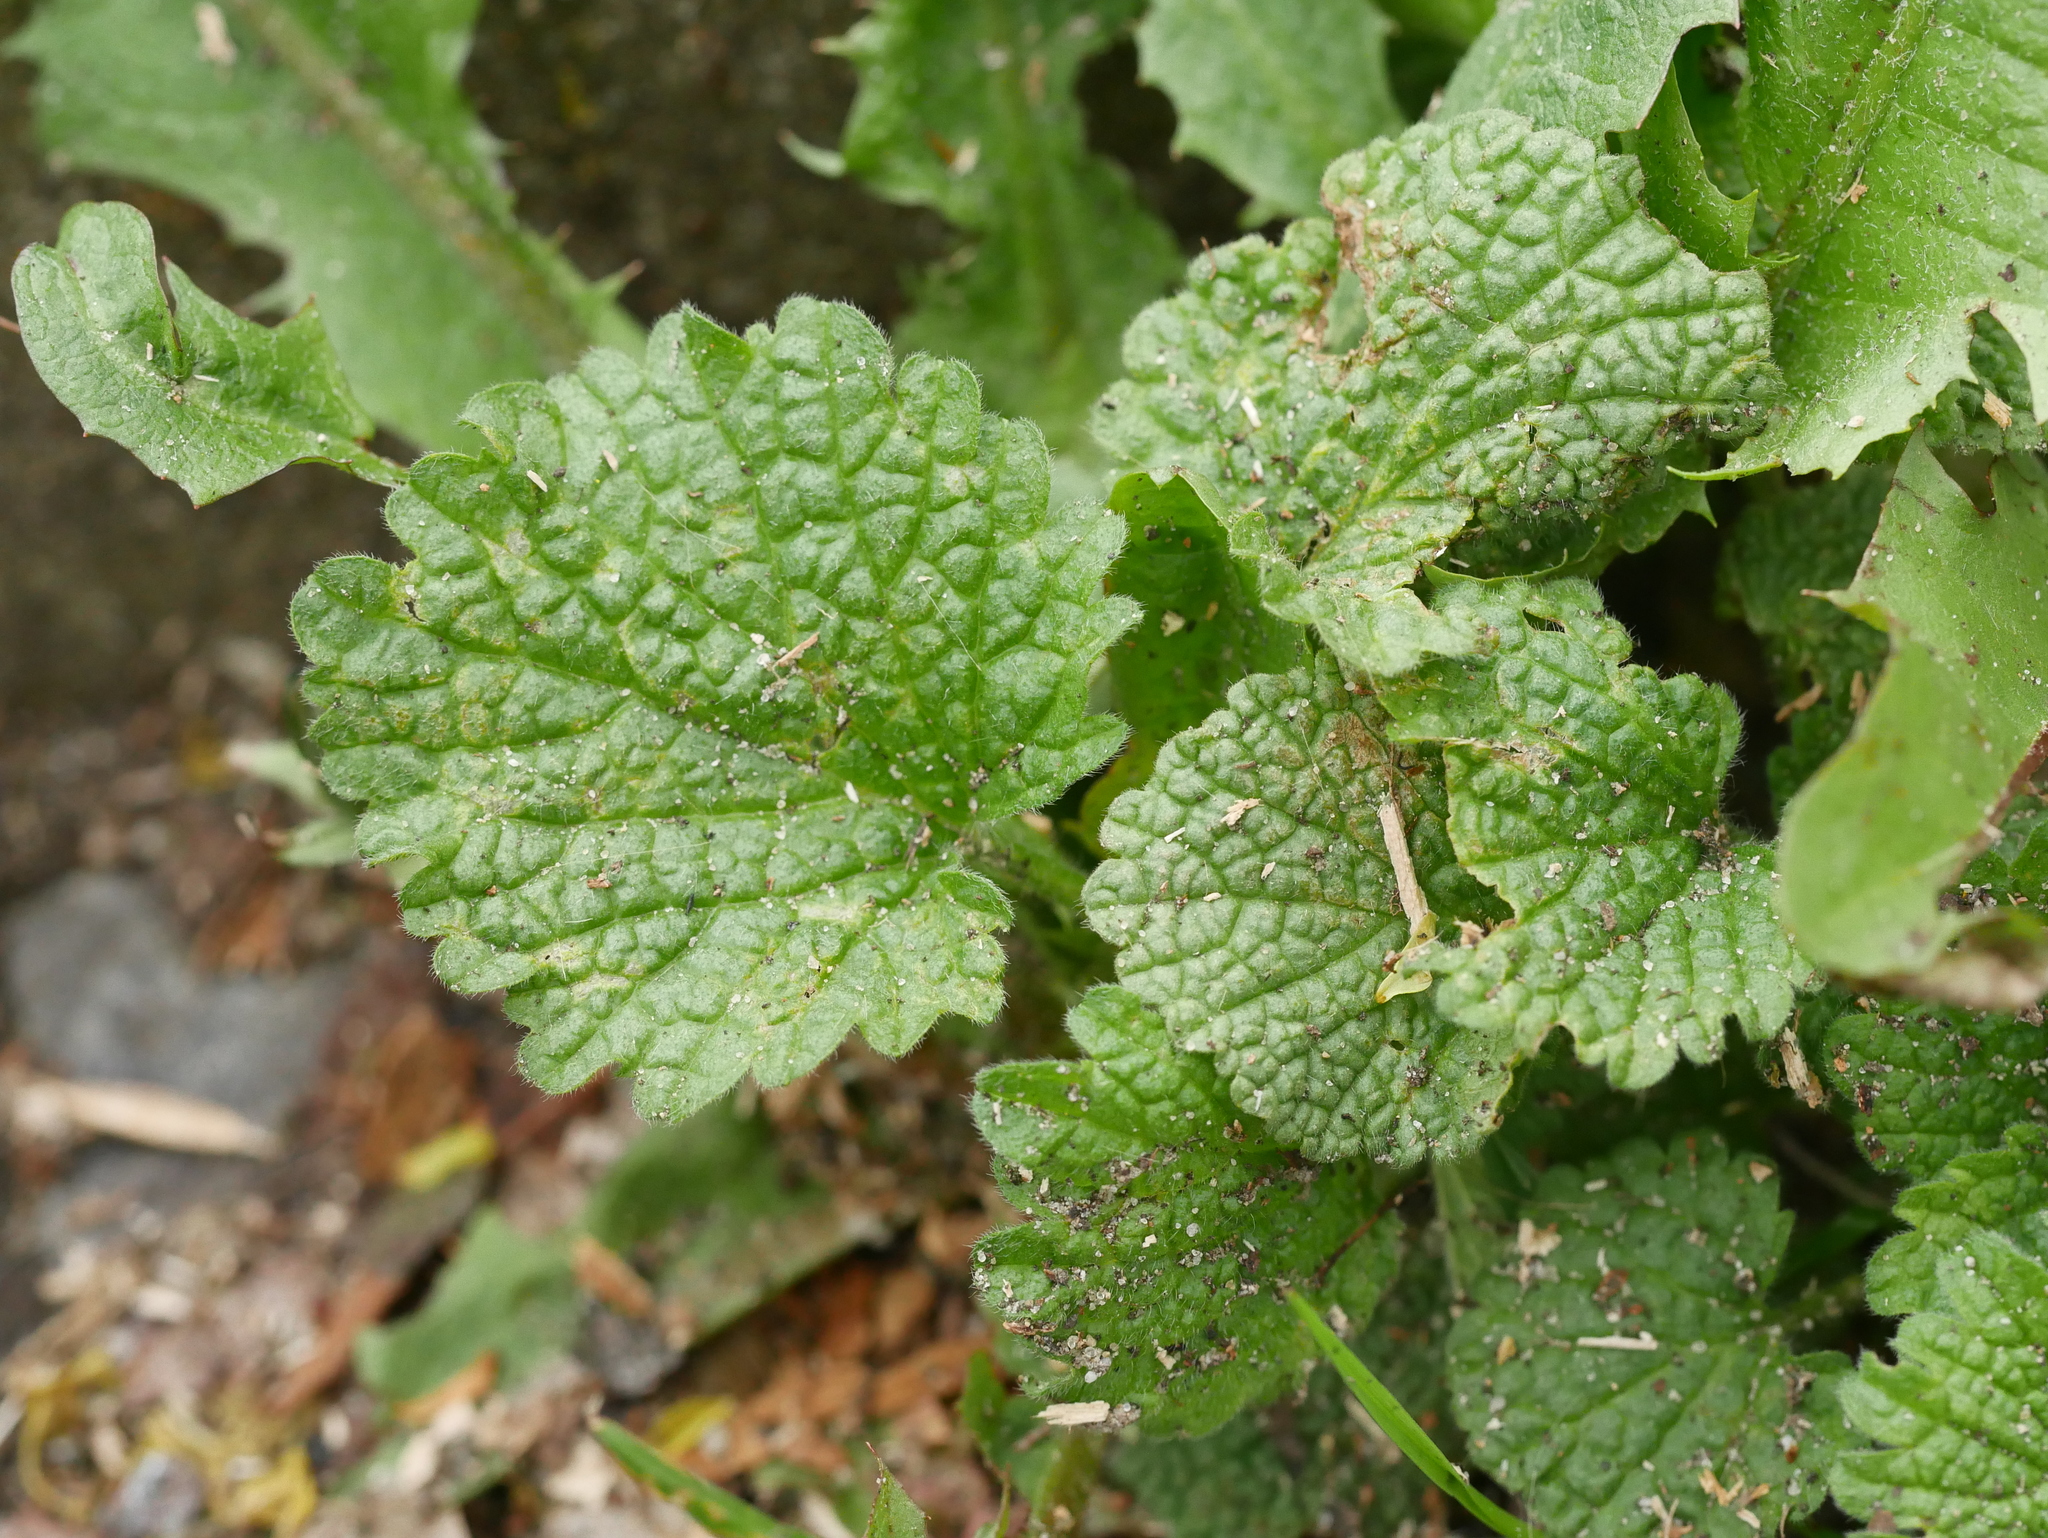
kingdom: Plantae
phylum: Tracheophyta
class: Magnoliopsida
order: Lamiales
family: Lamiaceae
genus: Ballota
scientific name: Ballota nigra
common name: Black horehound
